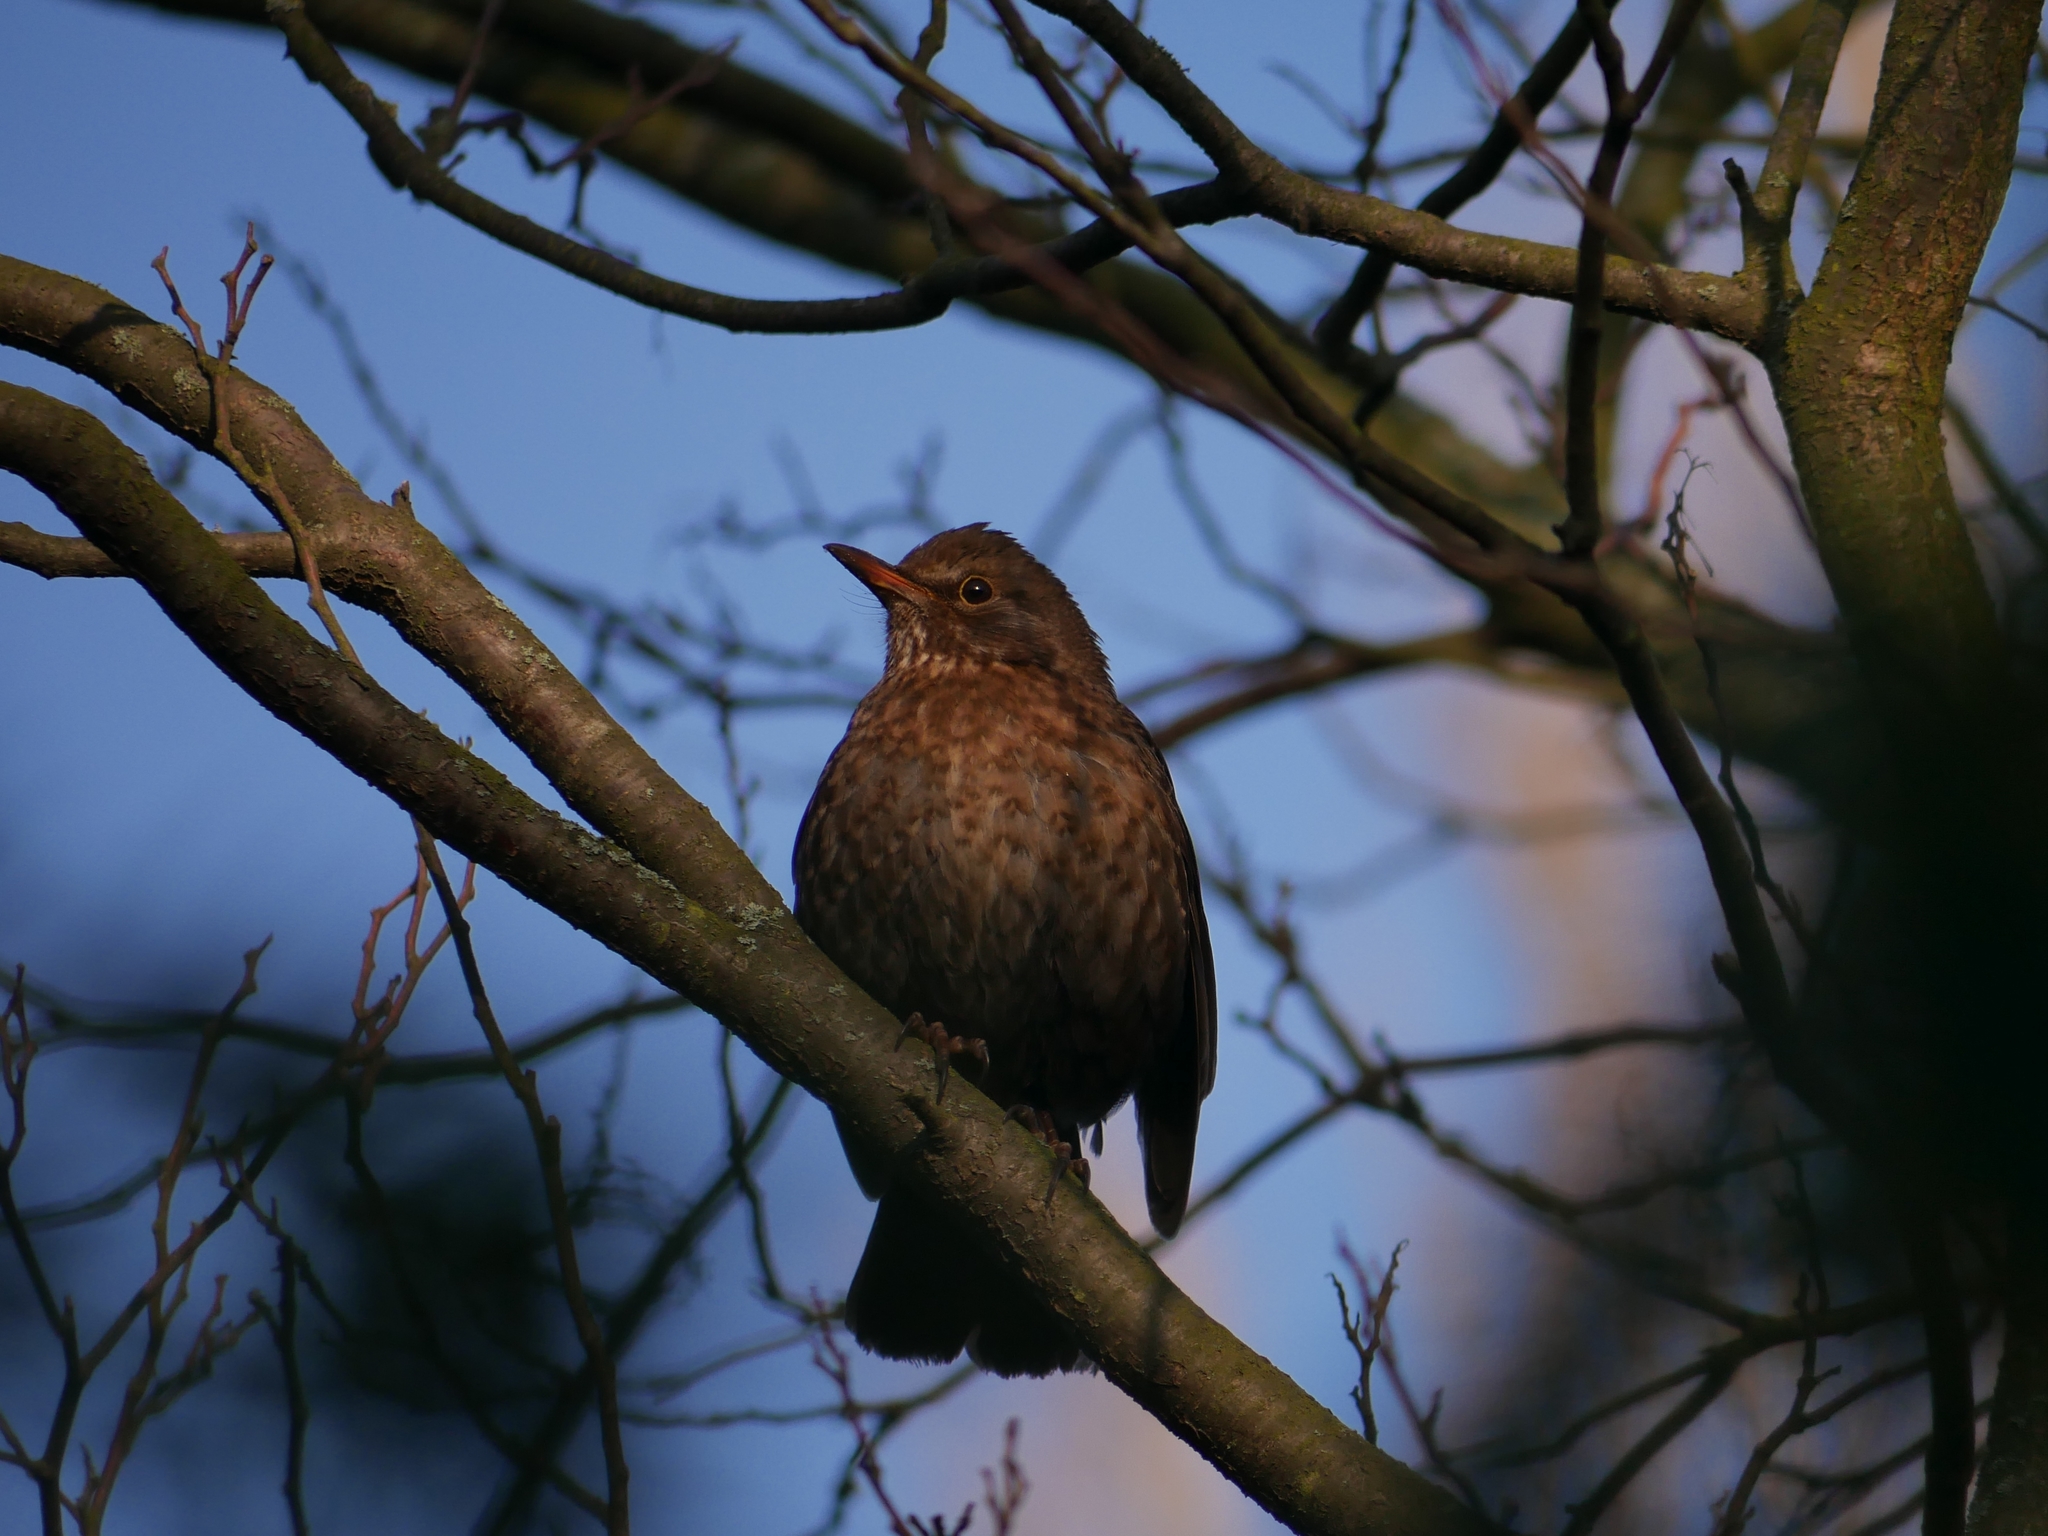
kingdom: Animalia
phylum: Chordata
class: Aves
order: Passeriformes
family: Turdidae
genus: Turdus
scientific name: Turdus merula
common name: Common blackbird
